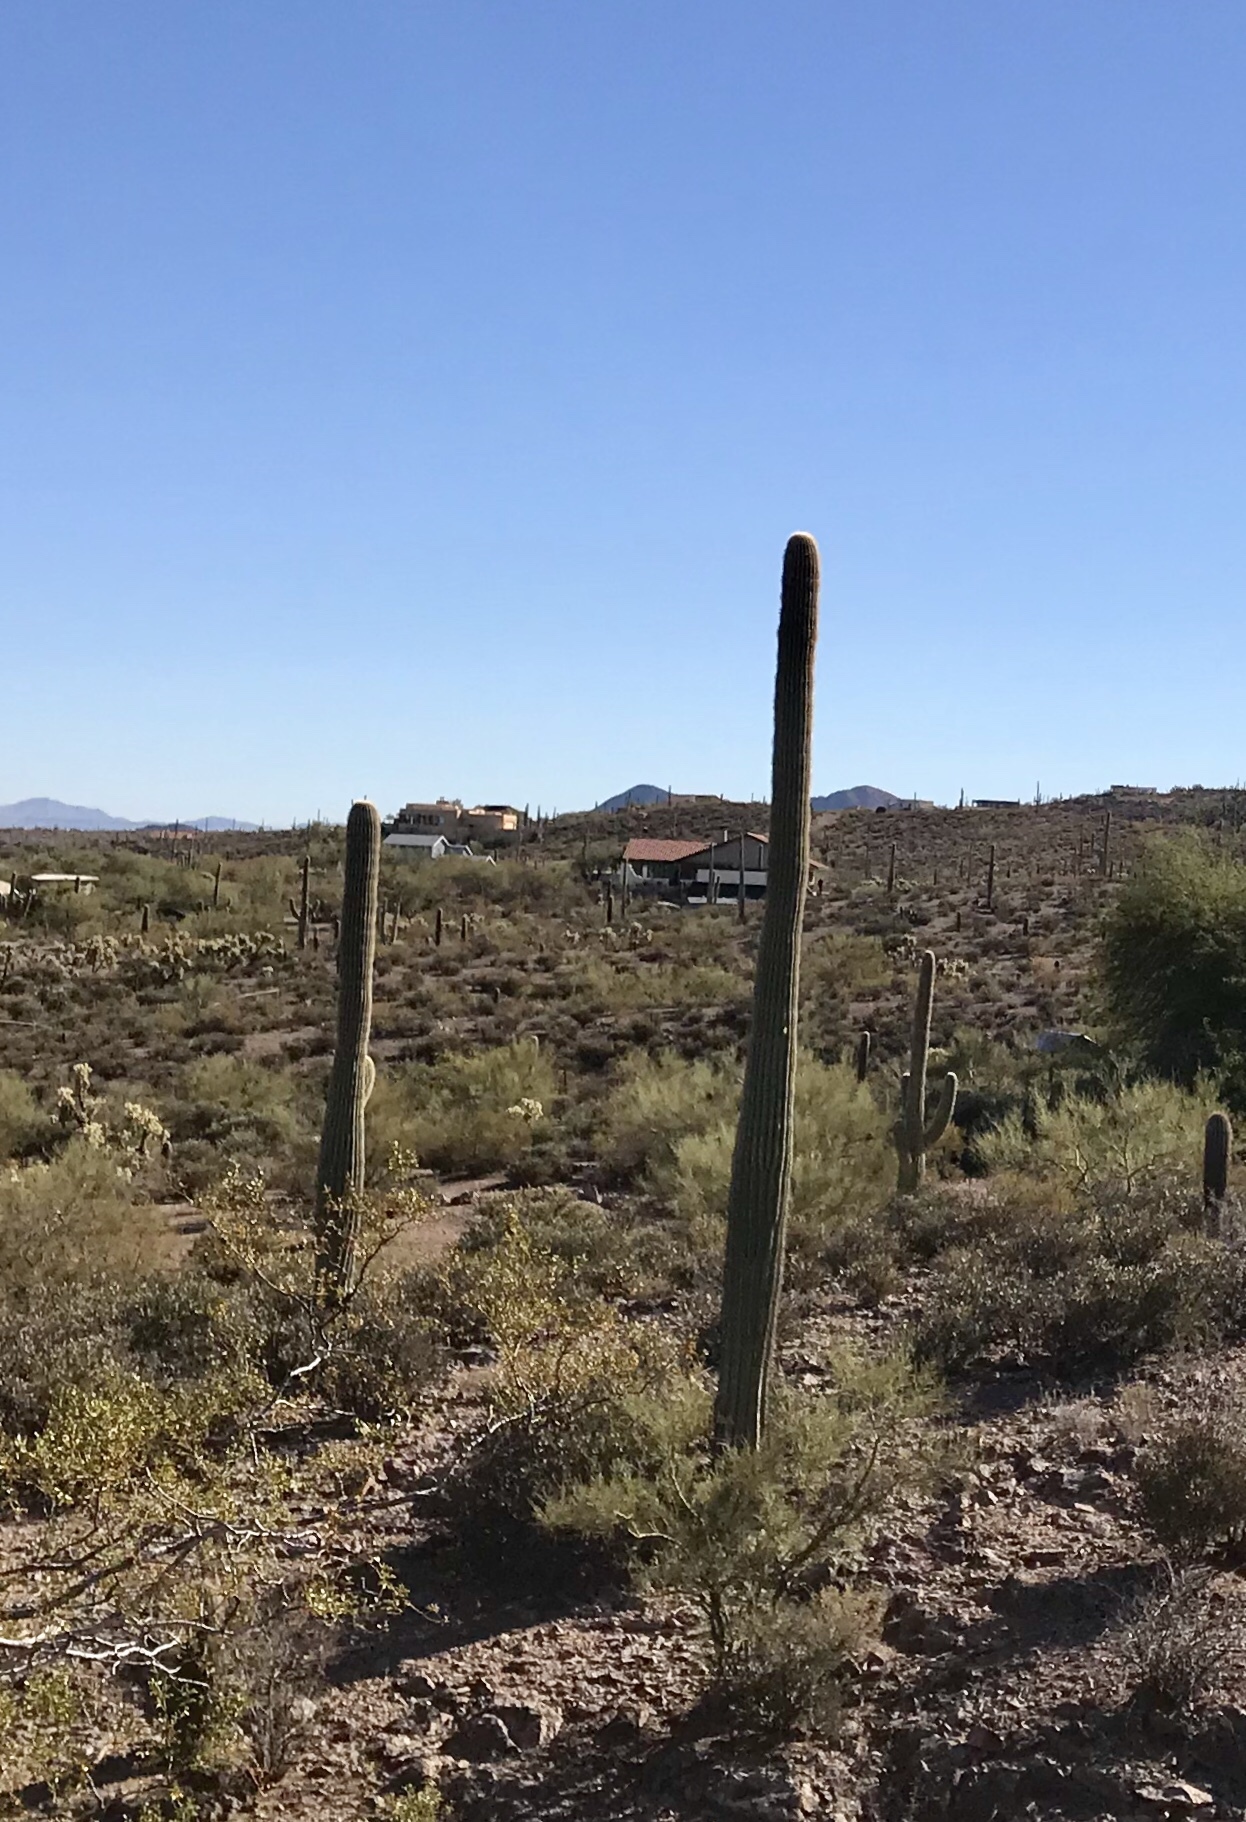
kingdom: Plantae
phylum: Tracheophyta
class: Magnoliopsida
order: Caryophyllales
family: Cactaceae
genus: Carnegiea
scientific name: Carnegiea gigantea
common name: Saguaro
